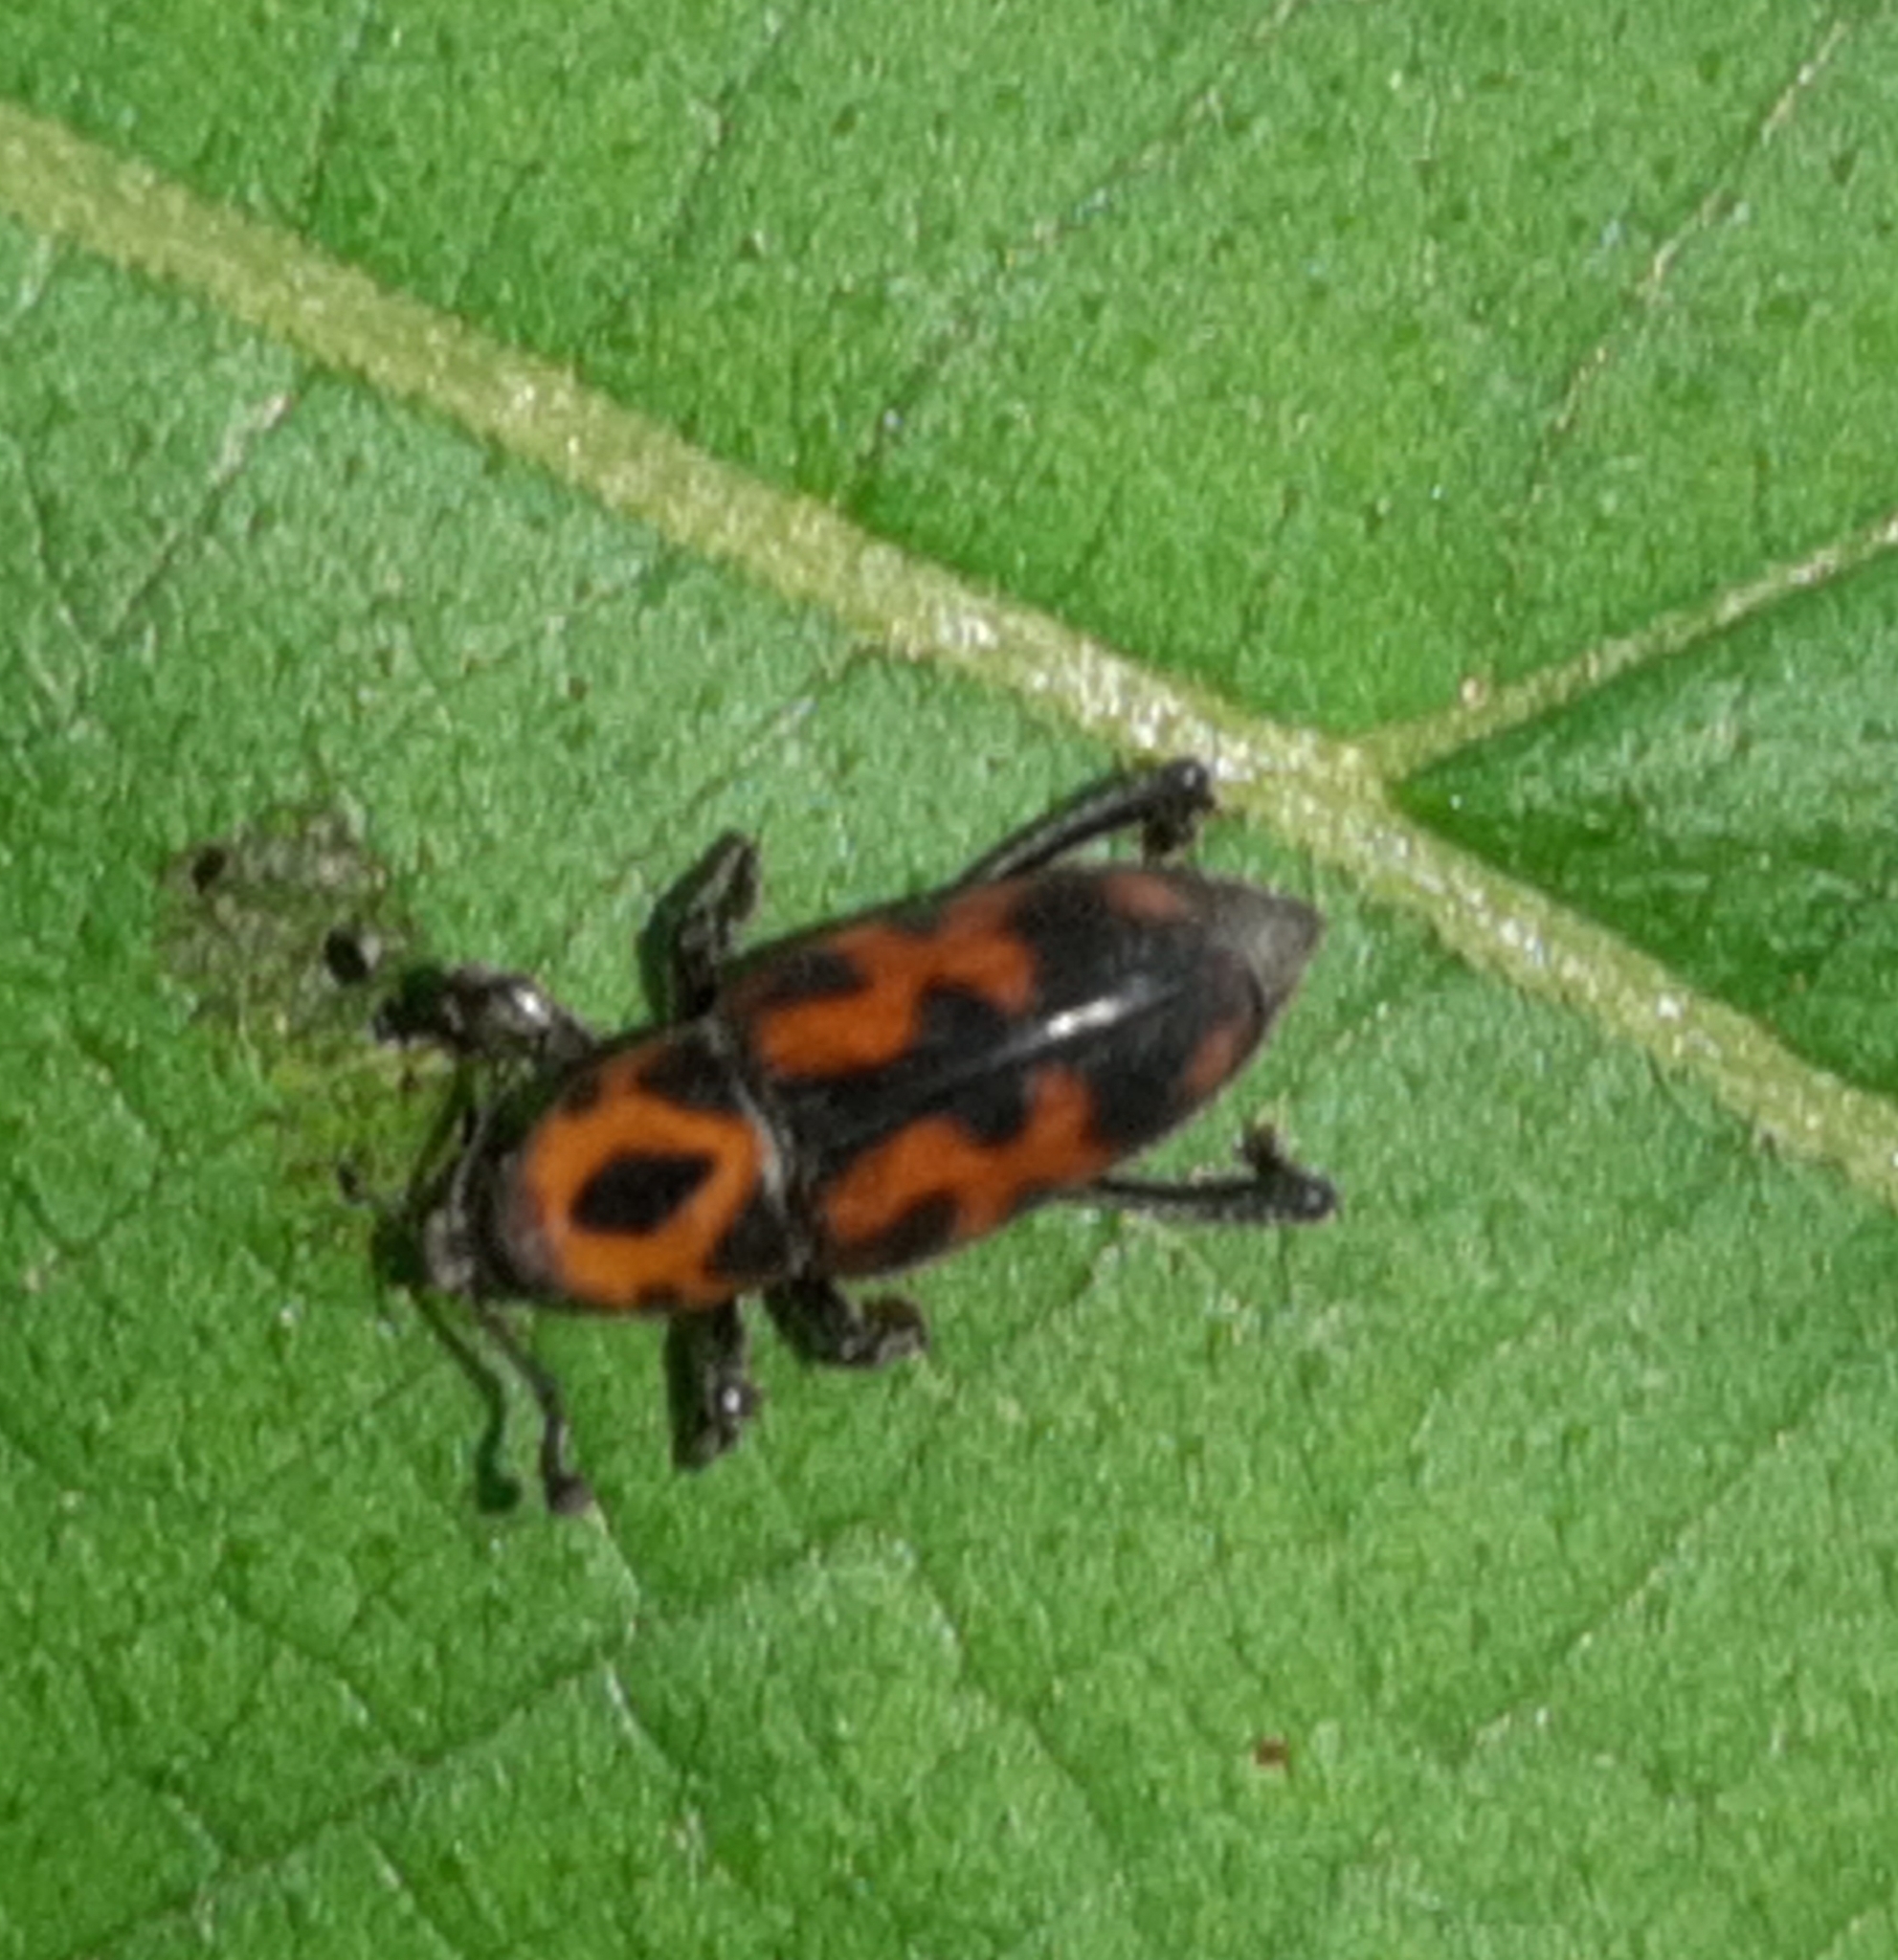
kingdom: Animalia
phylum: Arthropoda
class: Insecta
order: Coleoptera
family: Dryophthoridae
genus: Rhodobaenus
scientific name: Rhodobaenus auctus
